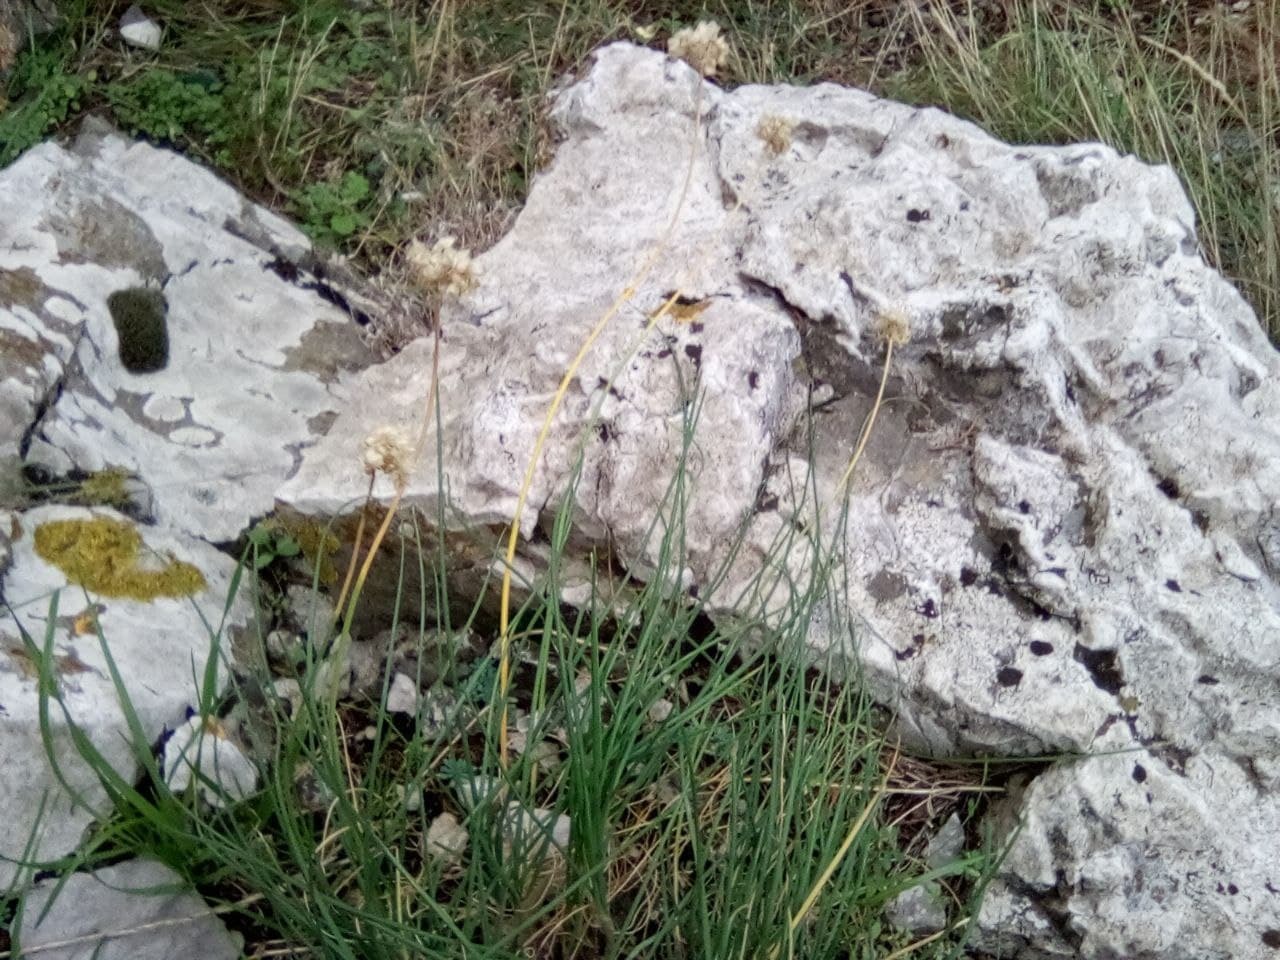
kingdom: Plantae
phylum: Tracheophyta
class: Liliopsida
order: Asparagales
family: Amaryllidaceae
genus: Allium
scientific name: Allium marschallianum
